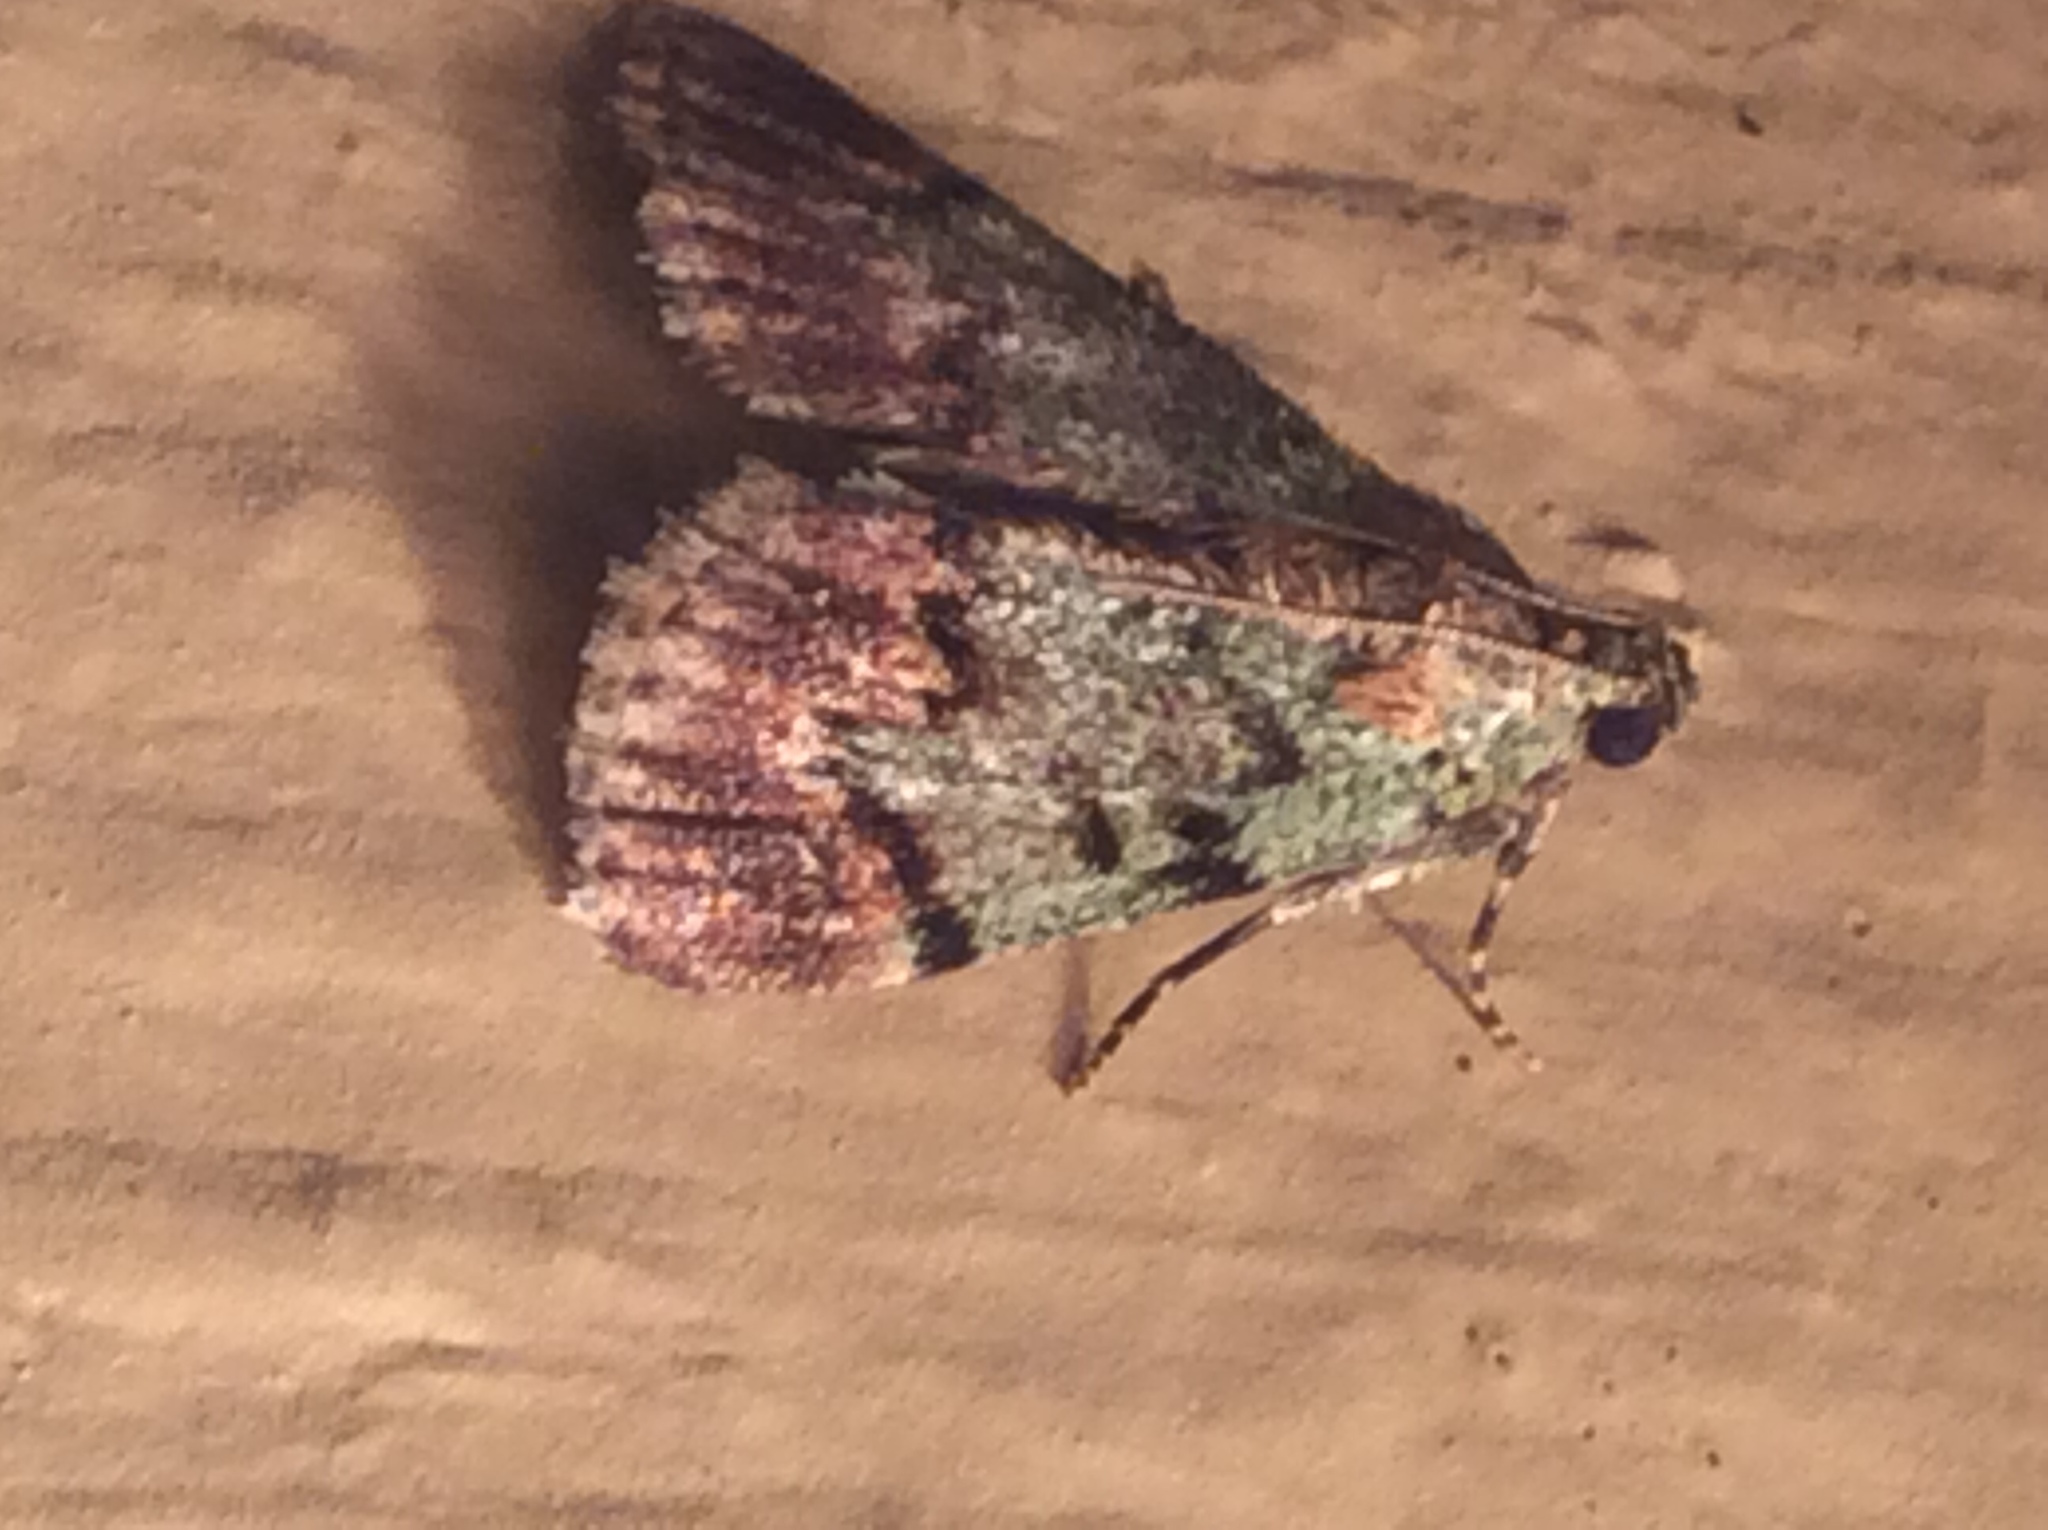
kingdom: Animalia
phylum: Arthropoda
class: Insecta
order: Lepidoptera
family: Pyralidae
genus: Epipaschia
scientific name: Epipaschia superatalis
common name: Dimorphic macalla moth
